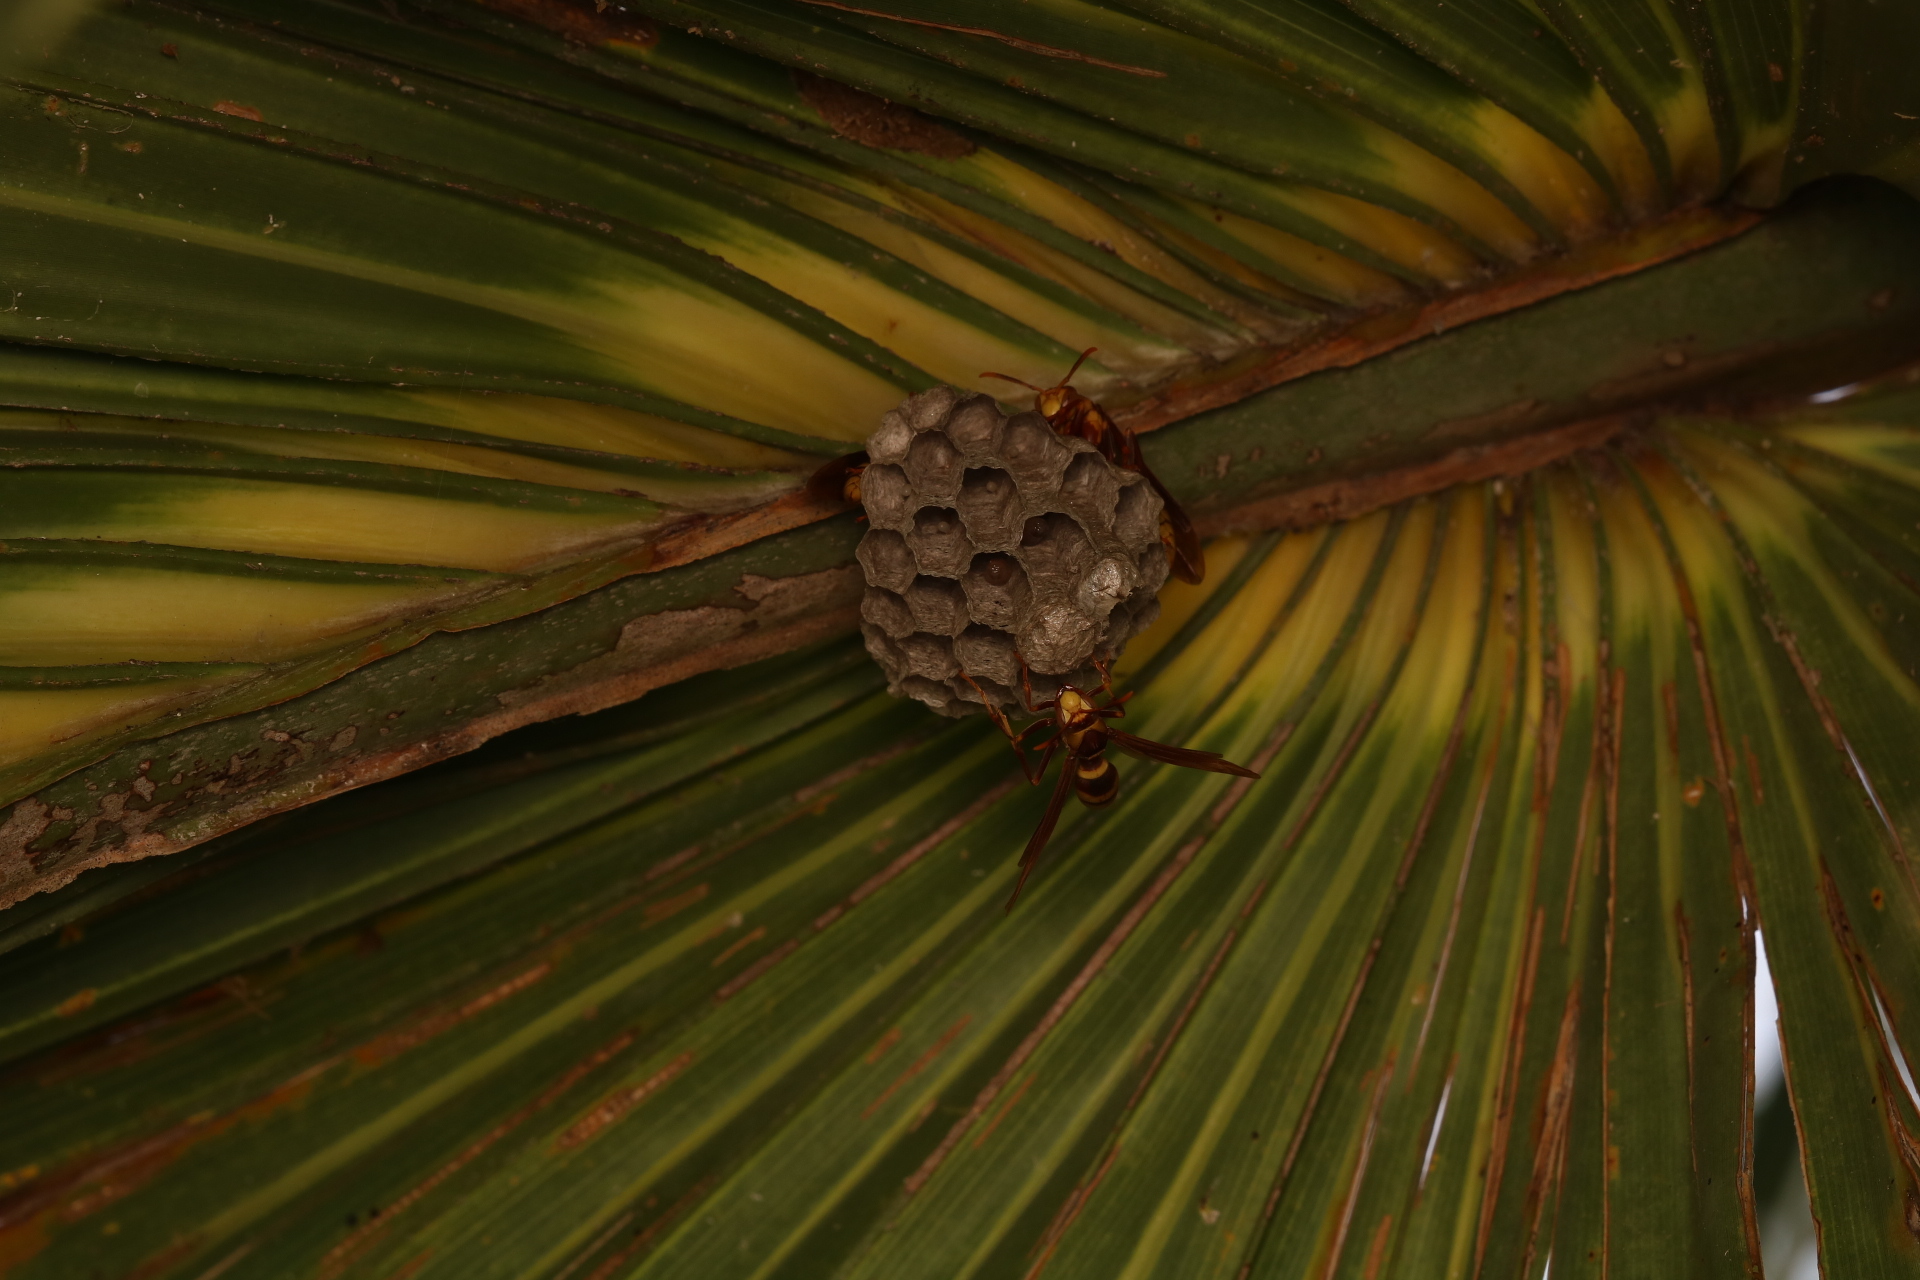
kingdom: Animalia
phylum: Arthropoda
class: Insecta
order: Hymenoptera
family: Eumenidae
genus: Polistes
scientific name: Polistes major
